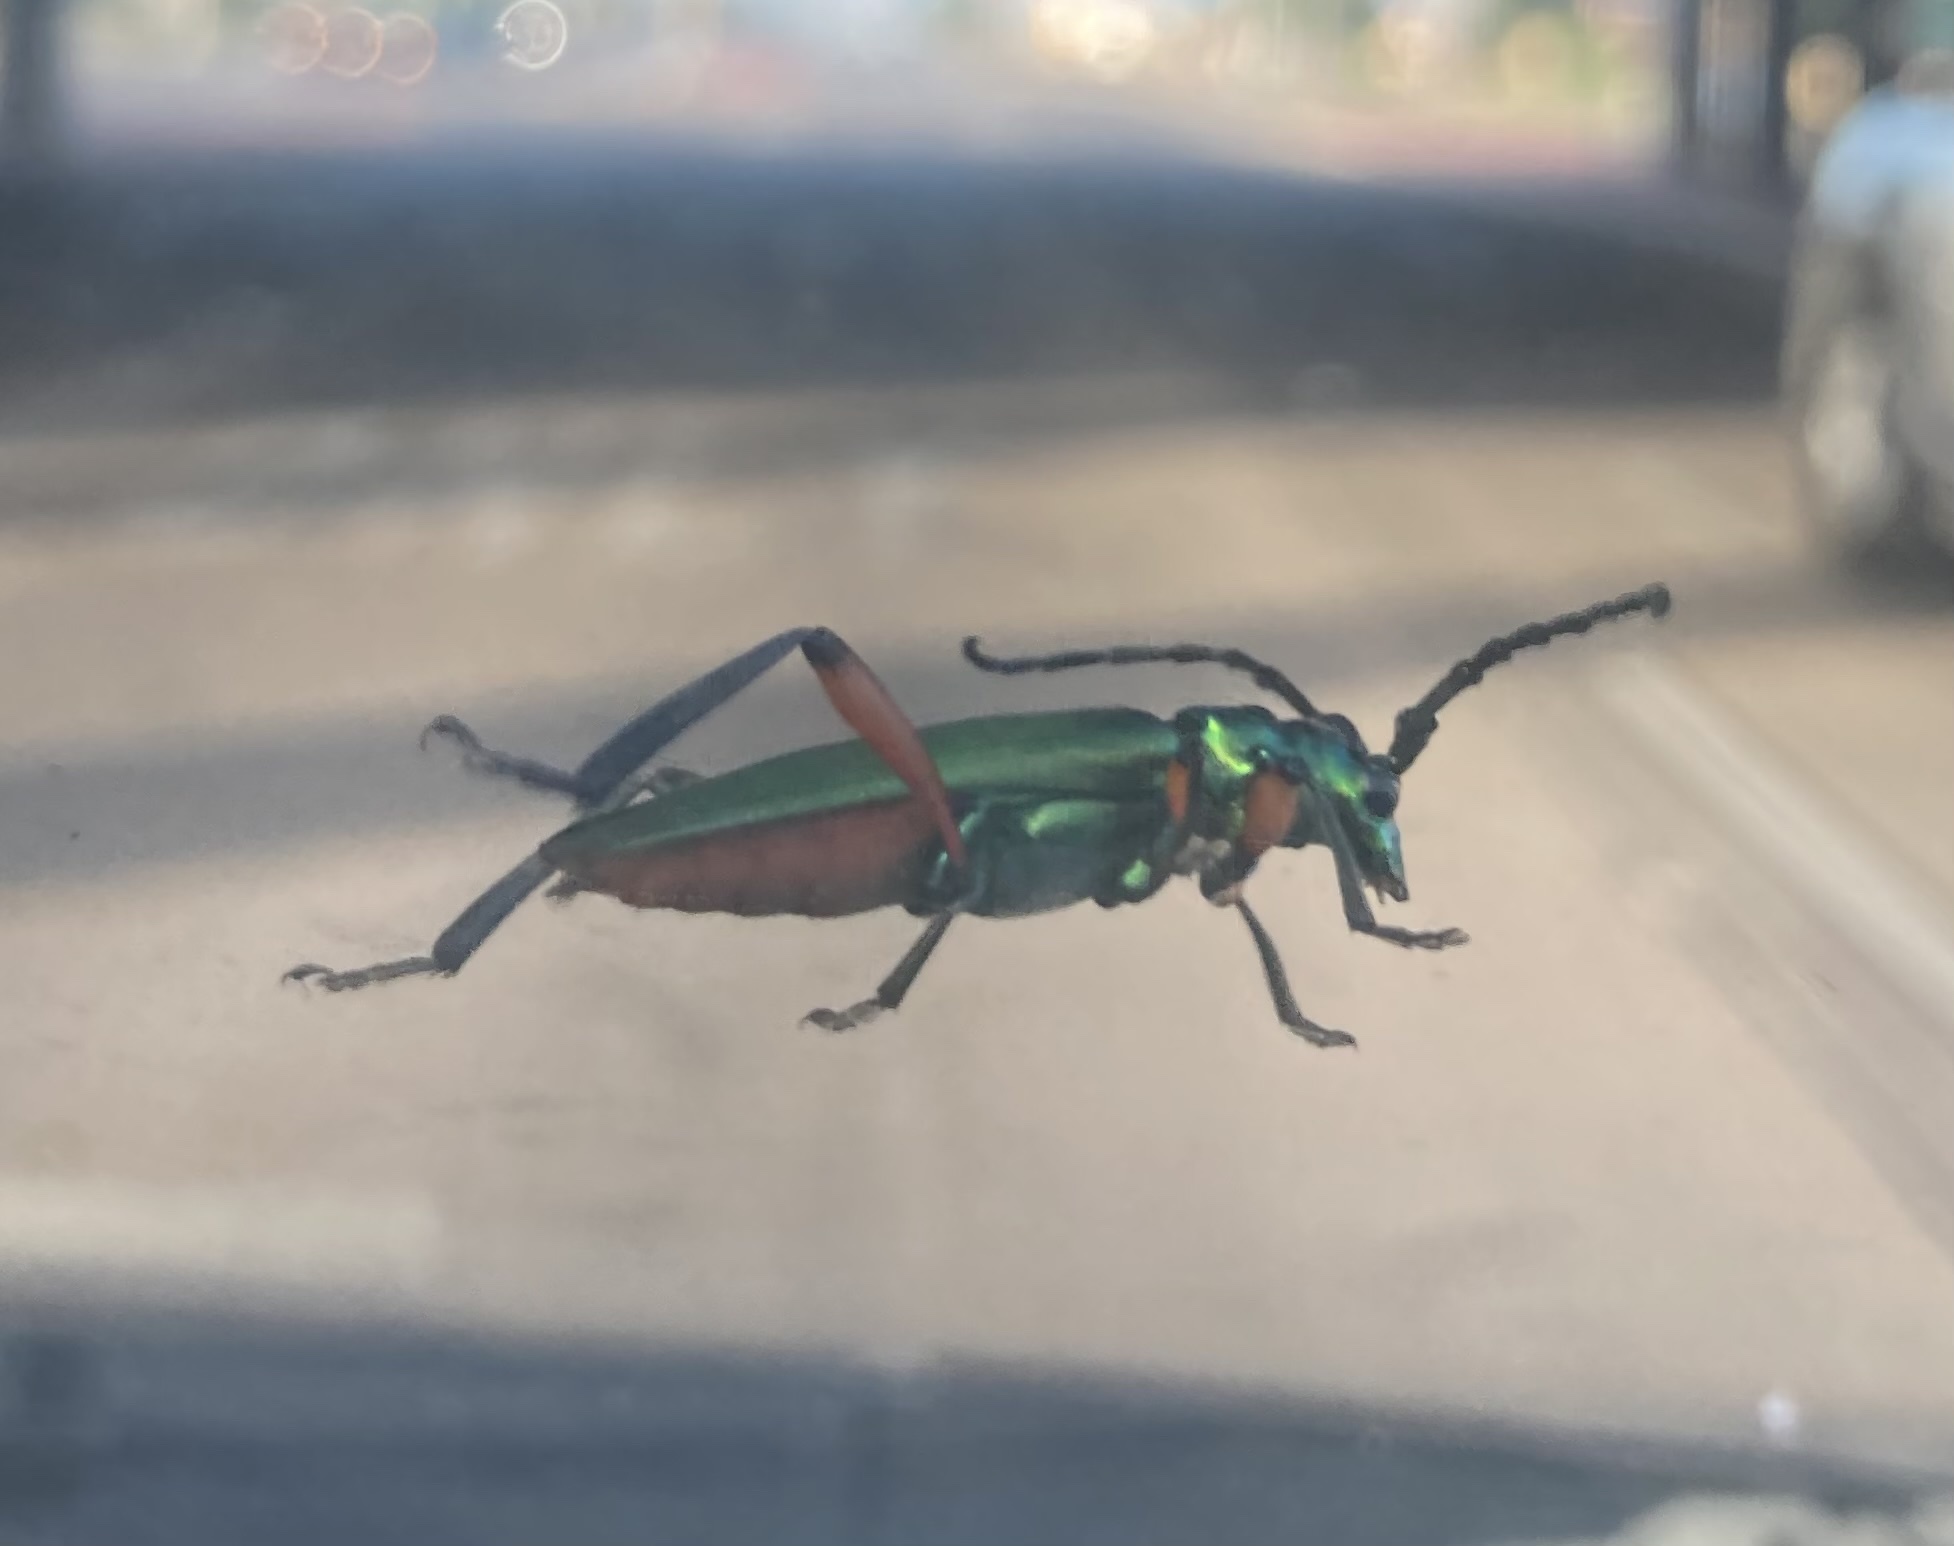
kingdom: Animalia
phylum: Arthropoda
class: Insecta
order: Coleoptera
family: Cerambycidae
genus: Plinthocoelium
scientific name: Plinthocoelium suaveolens
